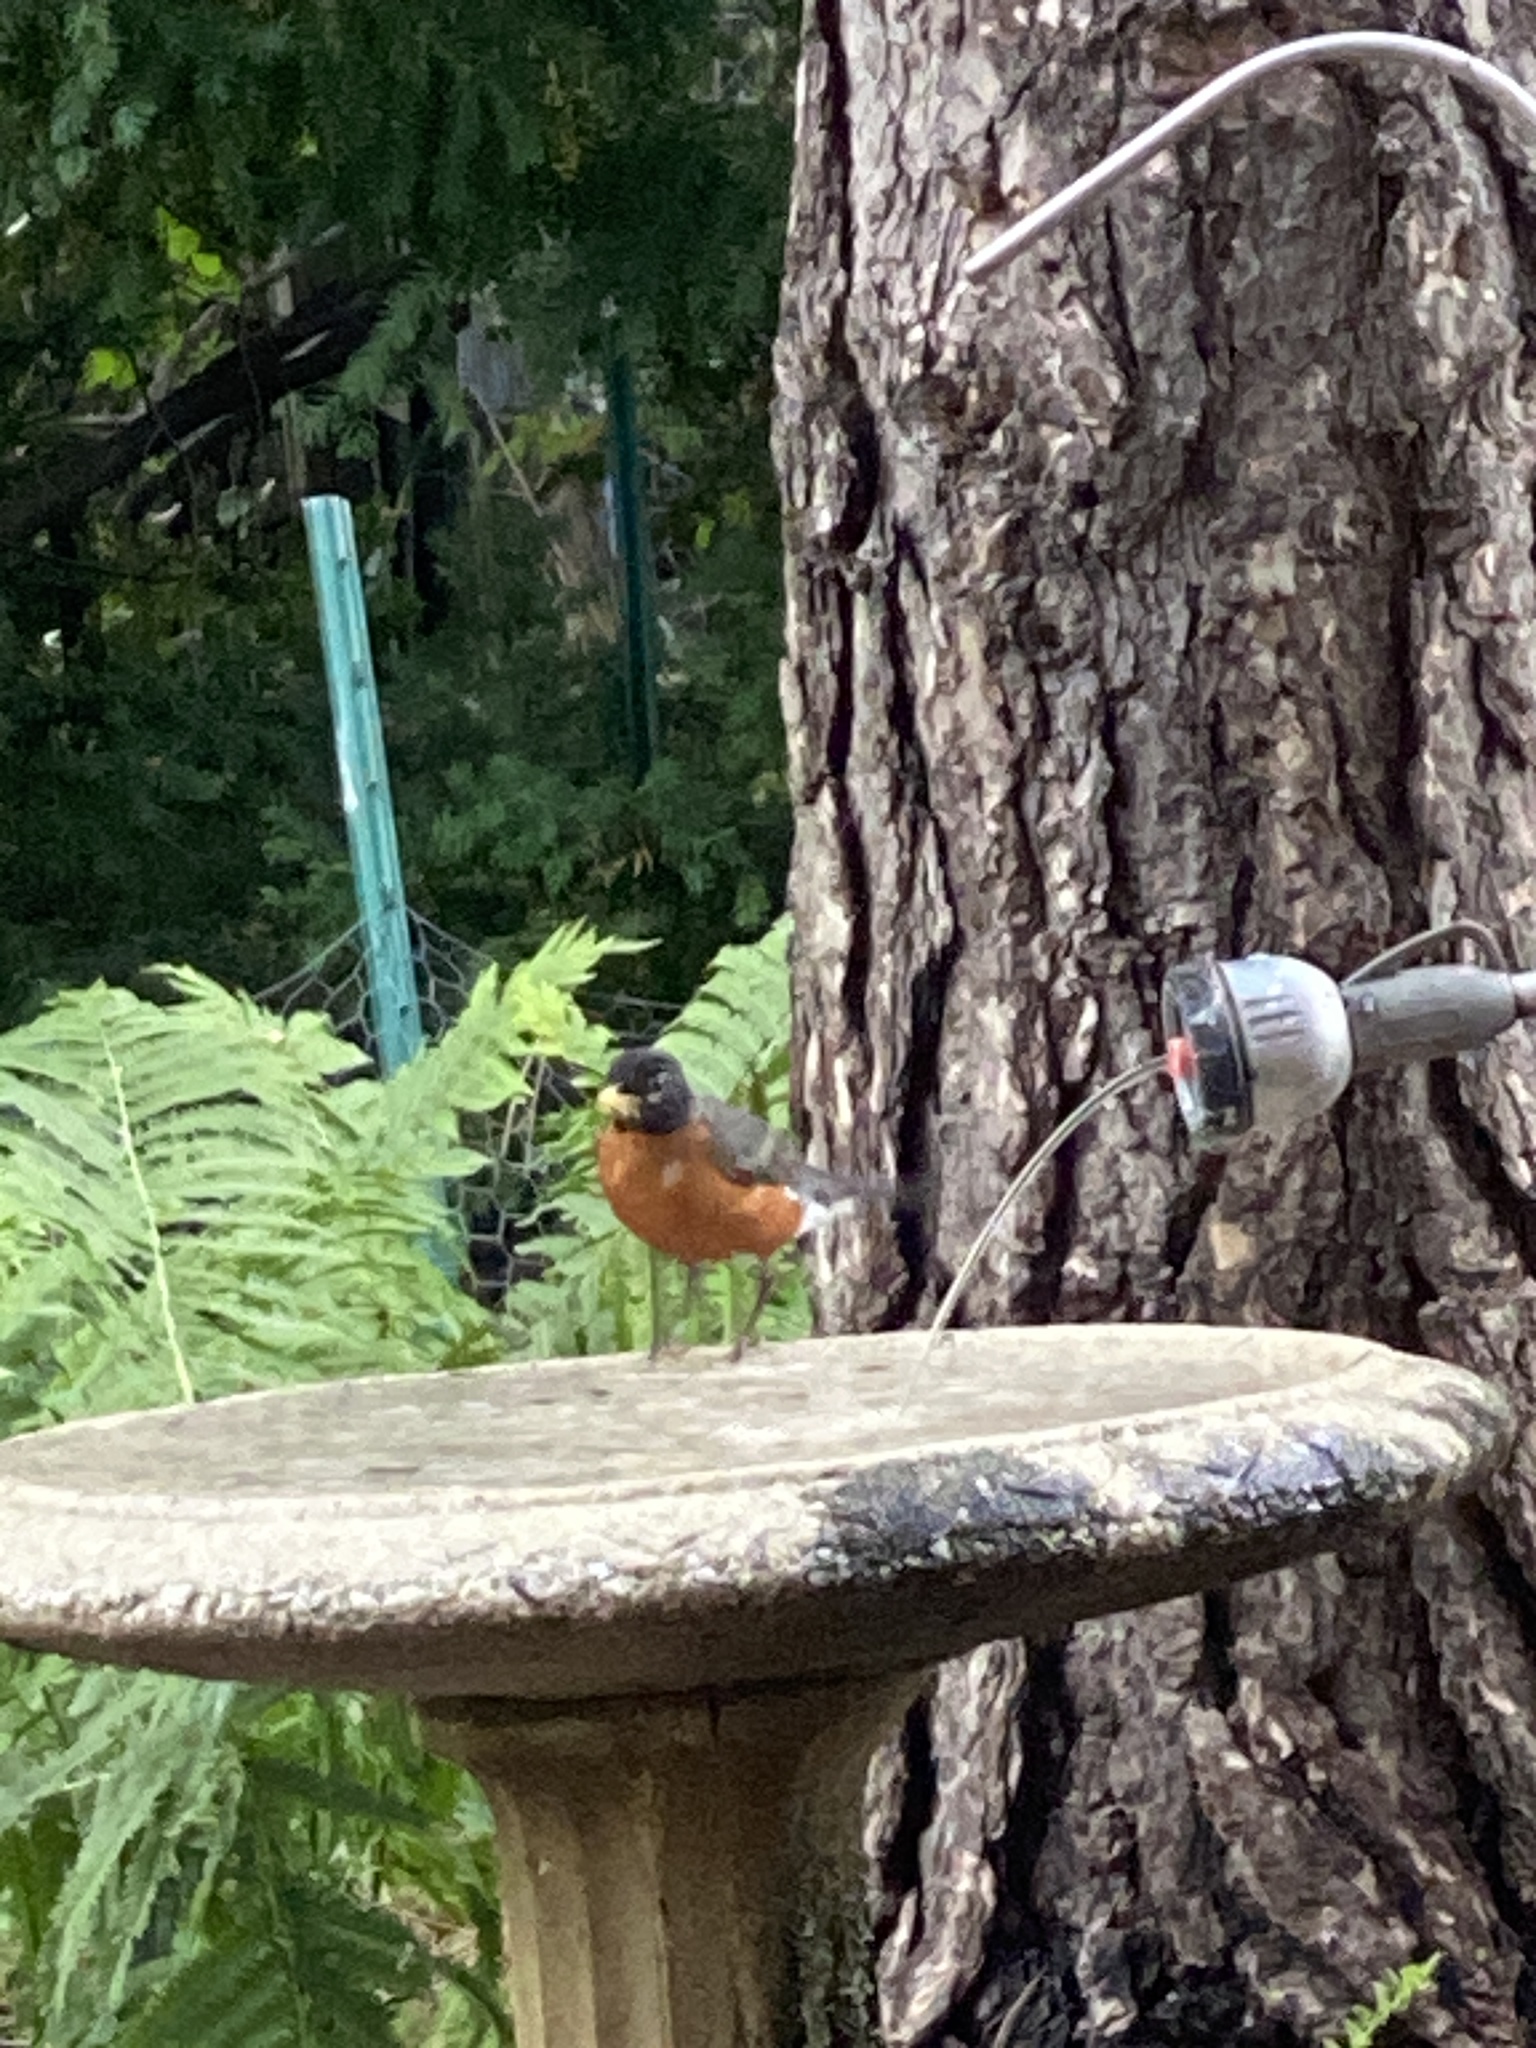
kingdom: Animalia
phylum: Chordata
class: Aves
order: Passeriformes
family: Turdidae
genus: Turdus
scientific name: Turdus migratorius
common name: American robin
